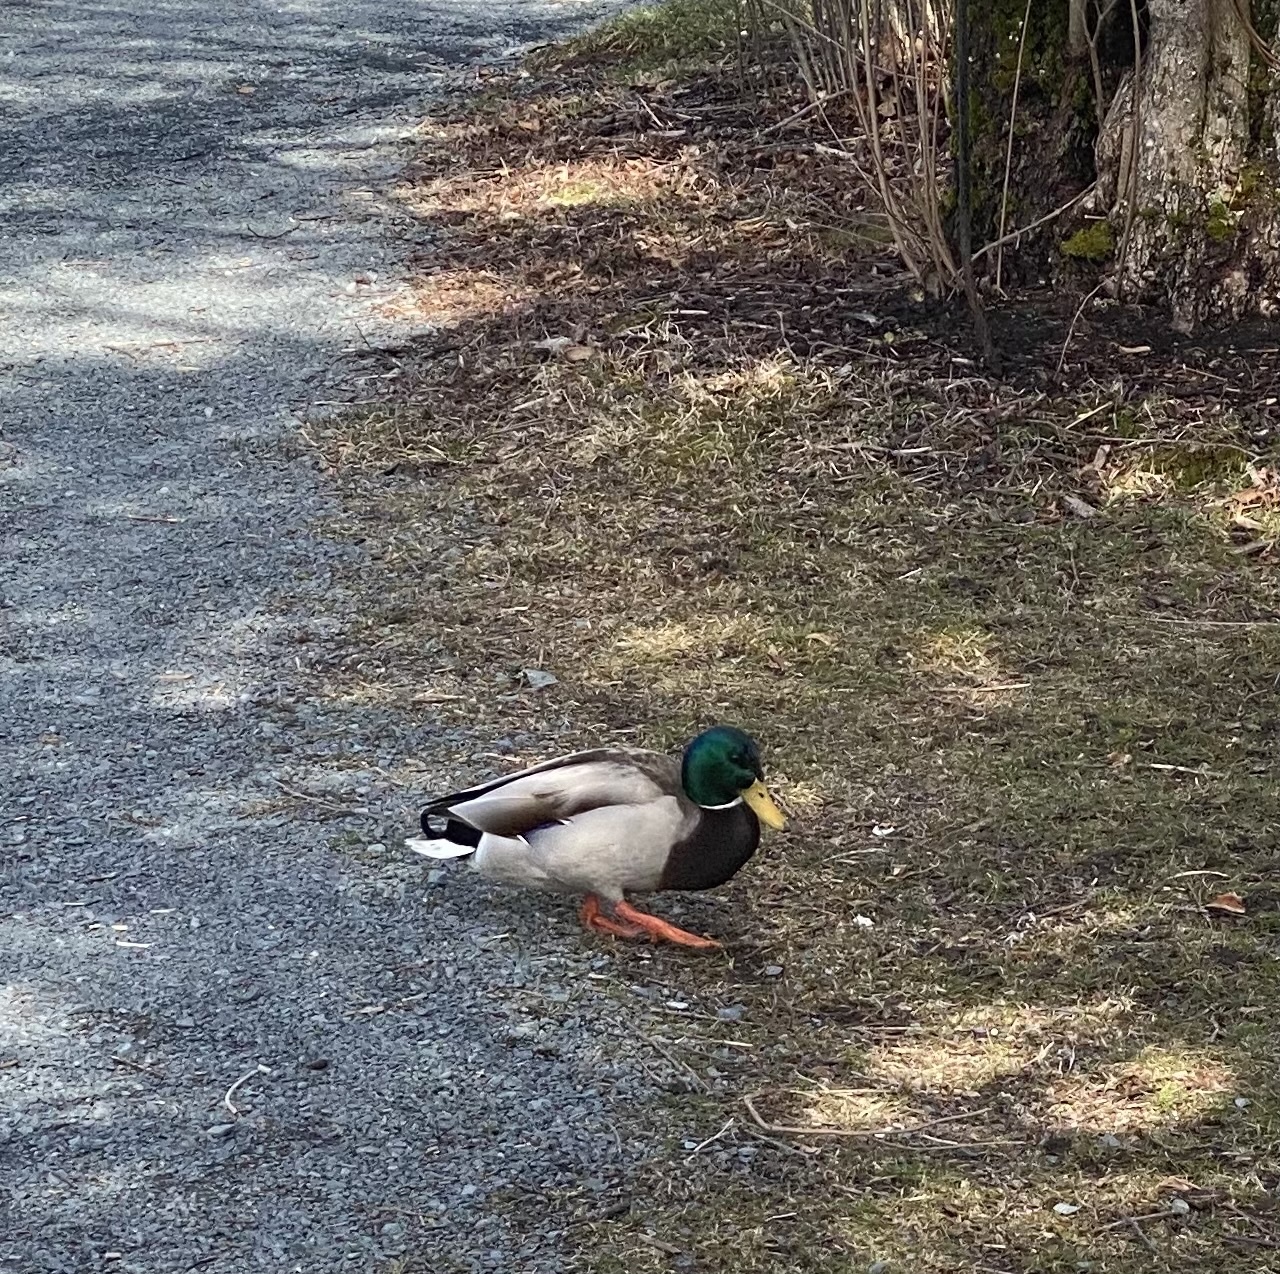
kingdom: Animalia
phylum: Chordata
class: Aves
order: Anseriformes
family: Anatidae
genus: Anas
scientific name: Anas platyrhynchos
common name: Mallard
